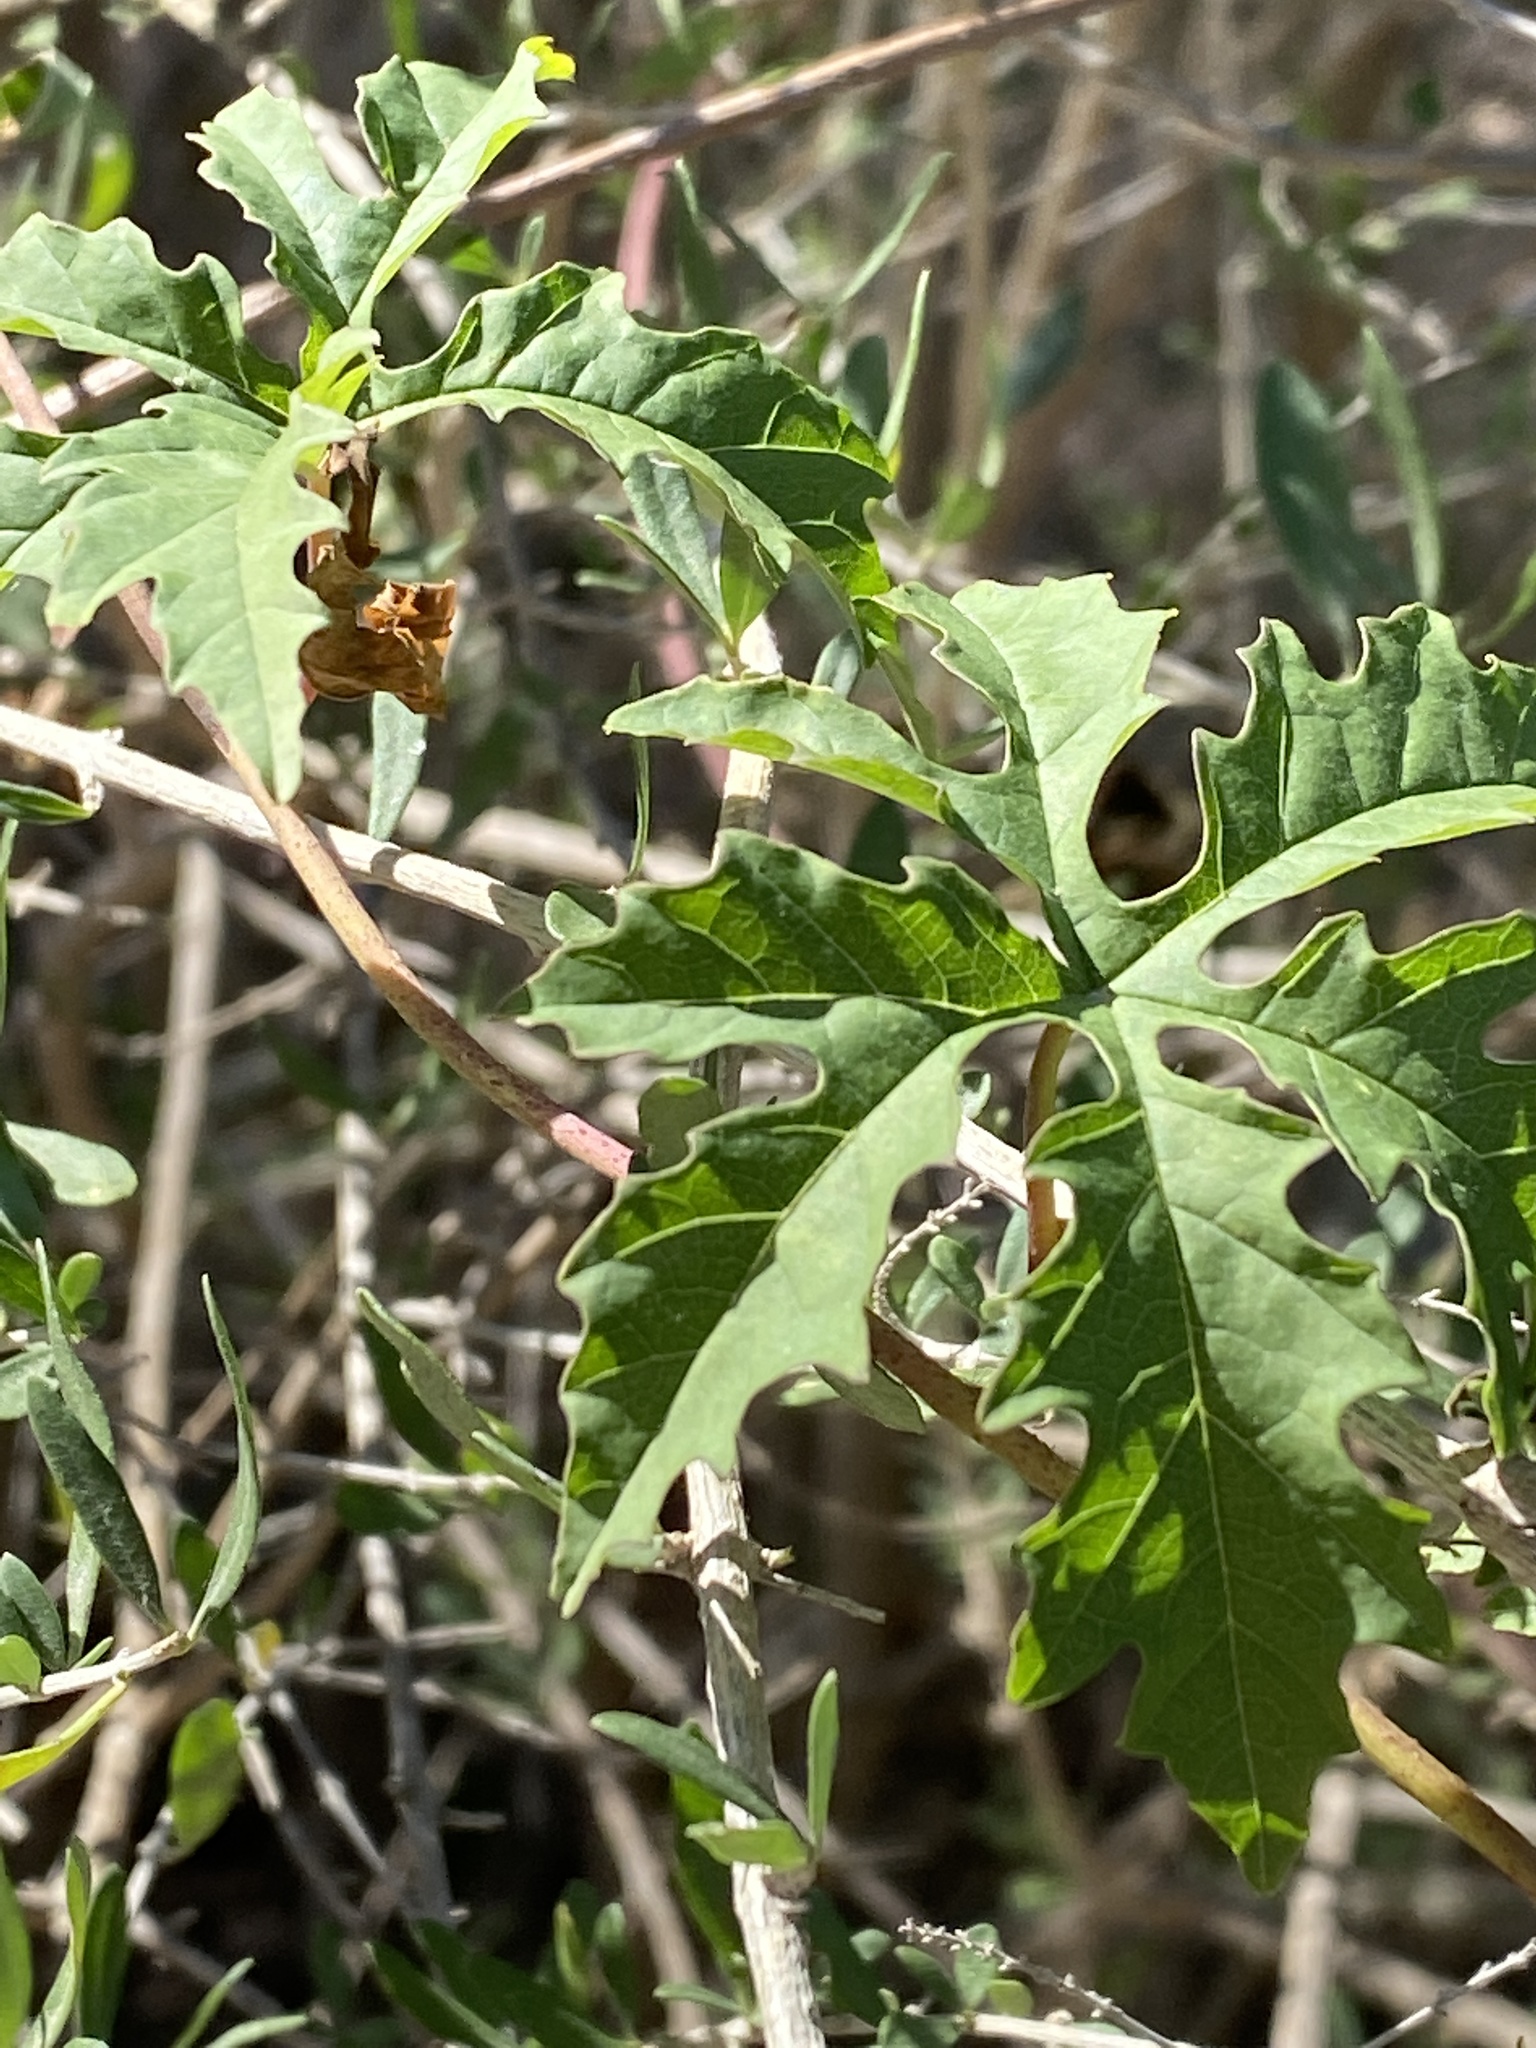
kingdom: Plantae
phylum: Tracheophyta
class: Magnoliopsida
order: Solanales
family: Convolvulaceae
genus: Distimake
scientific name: Distimake dissectus
